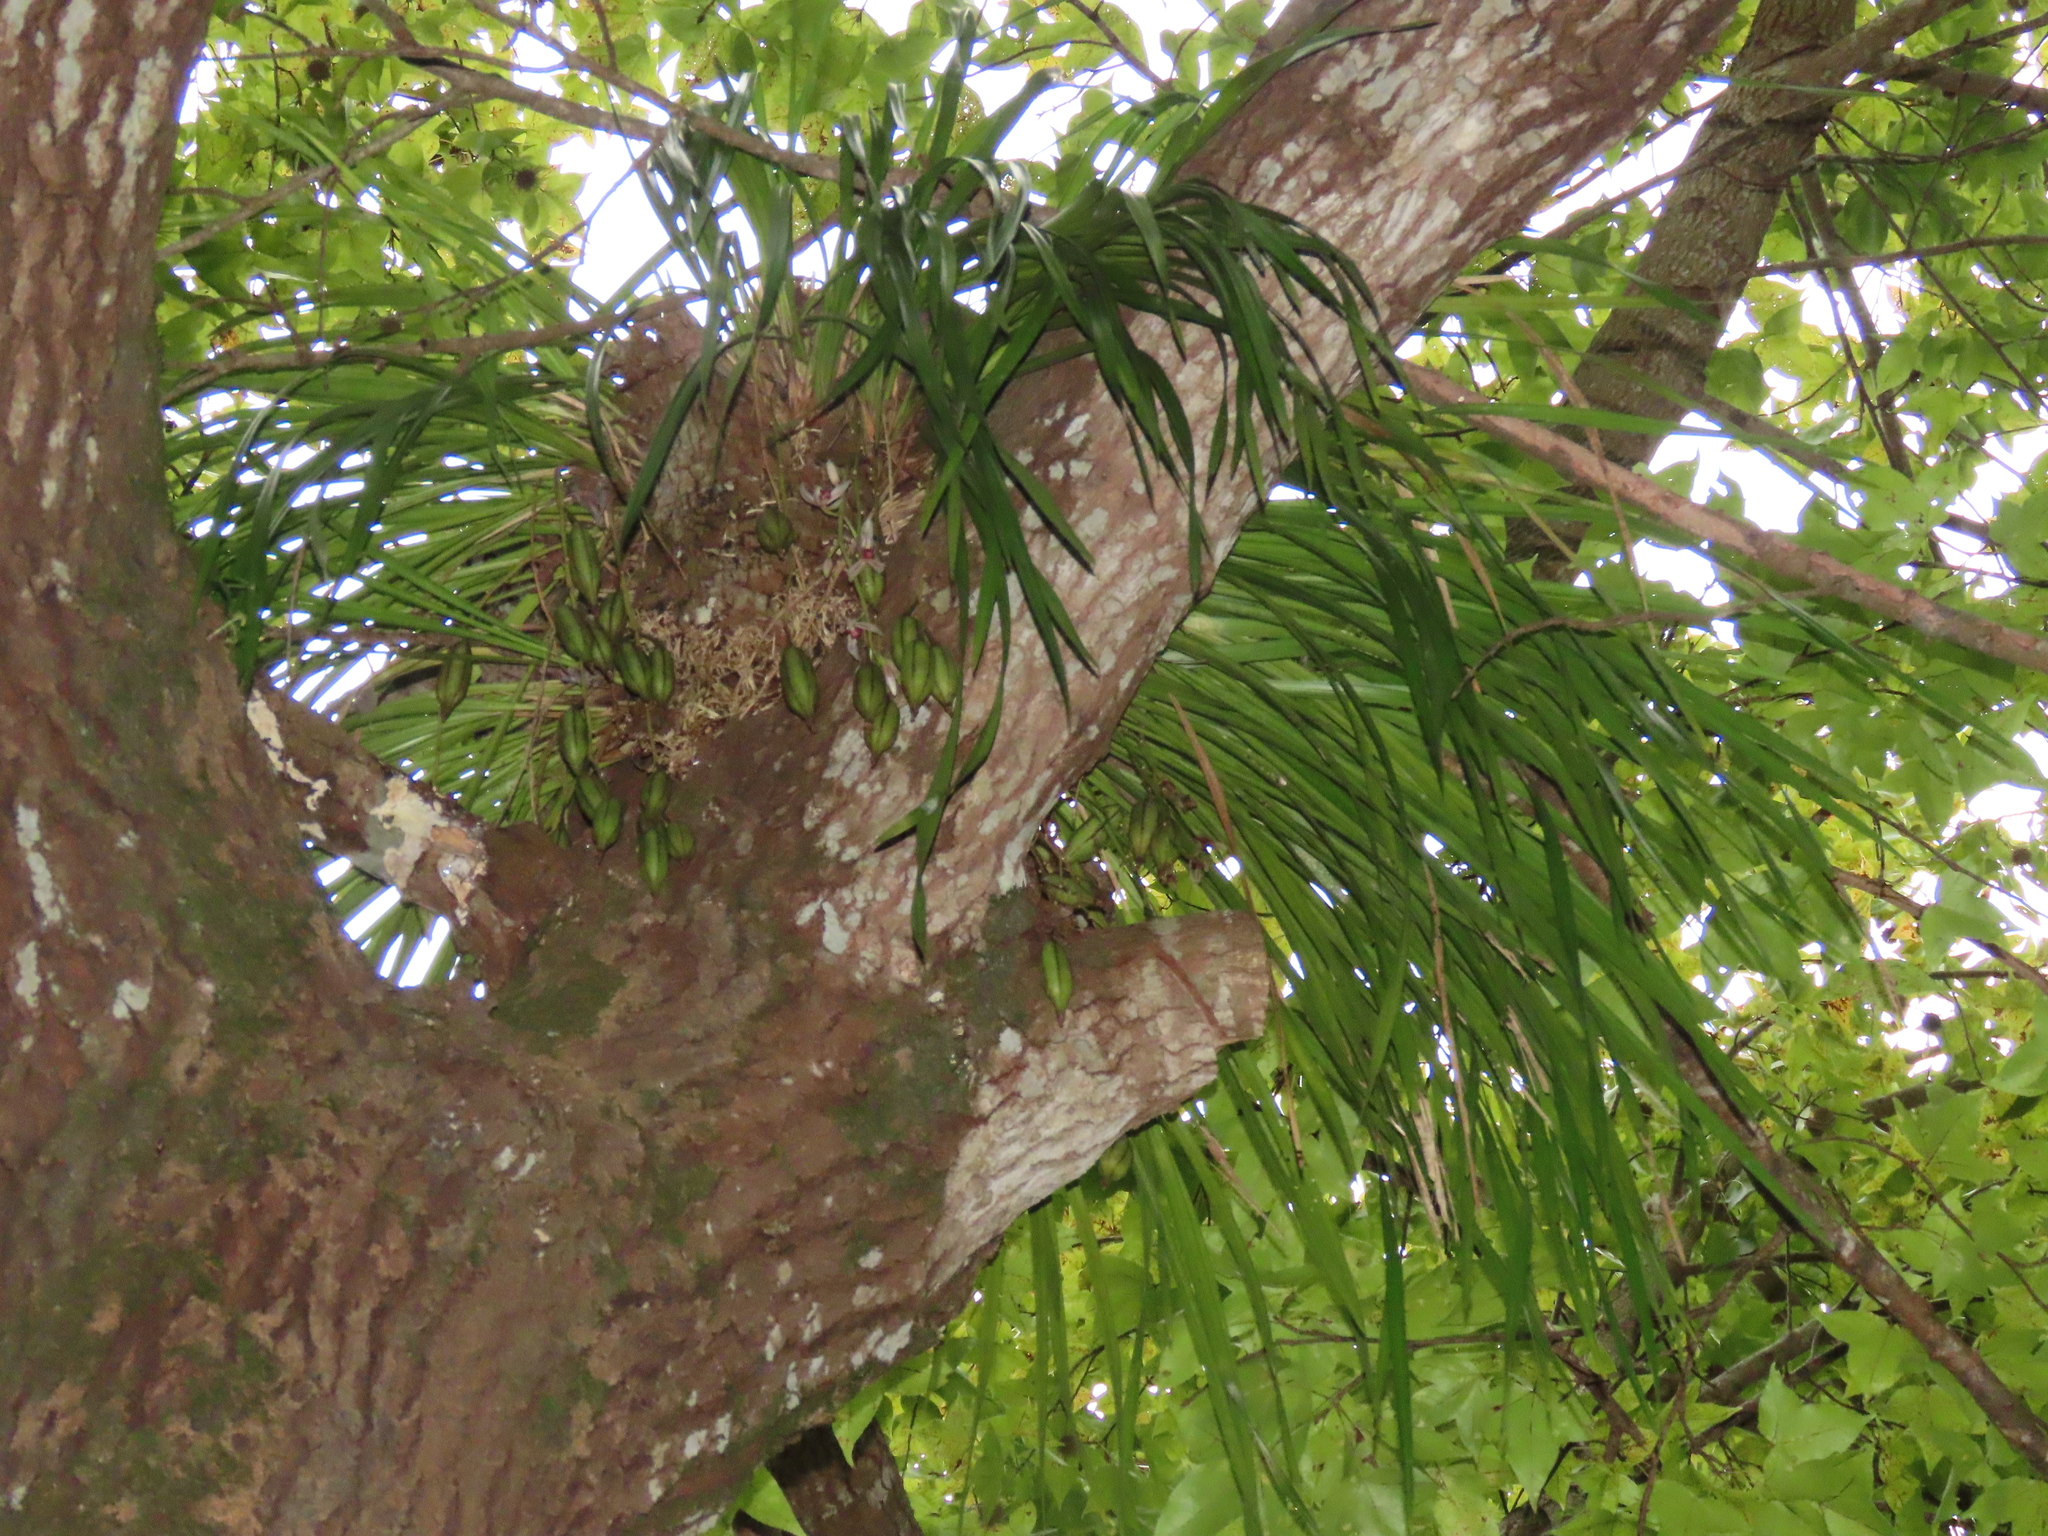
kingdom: Plantae
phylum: Tracheophyta
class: Liliopsida
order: Asparagales
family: Orchidaceae
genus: Cymbidium
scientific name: Cymbidium dayanum
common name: Orchid
